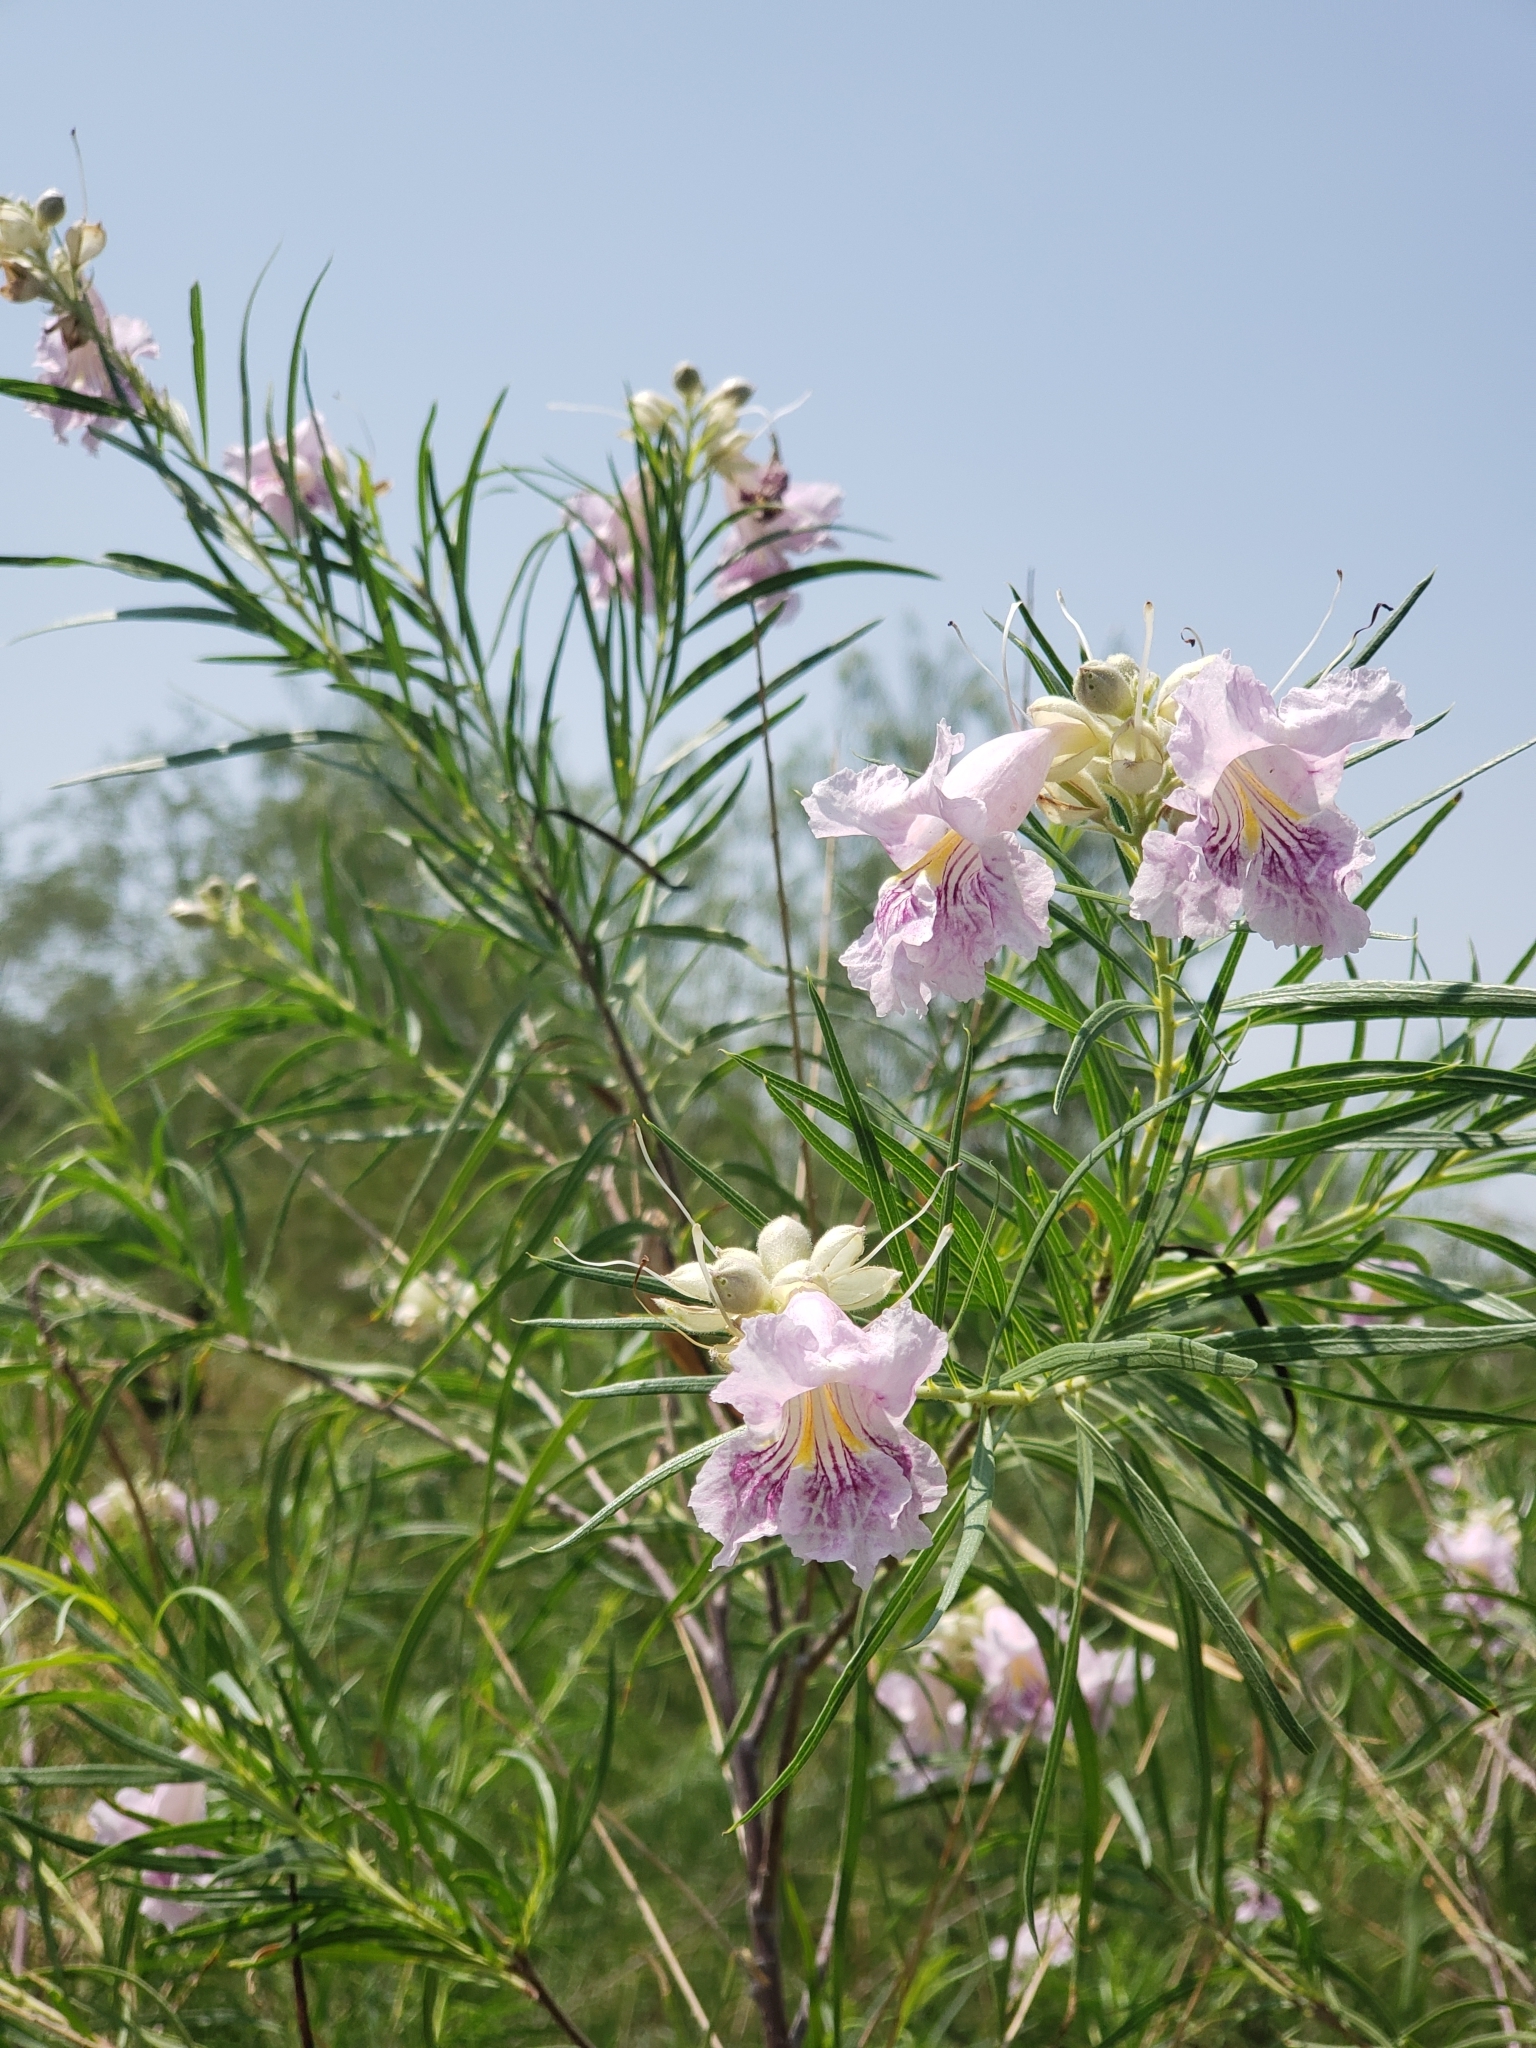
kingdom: Plantae
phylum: Tracheophyta
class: Magnoliopsida
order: Lamiales
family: Bignoniaceae
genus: Chilopsis
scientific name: Chilopsis linearis
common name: Desert-willow
